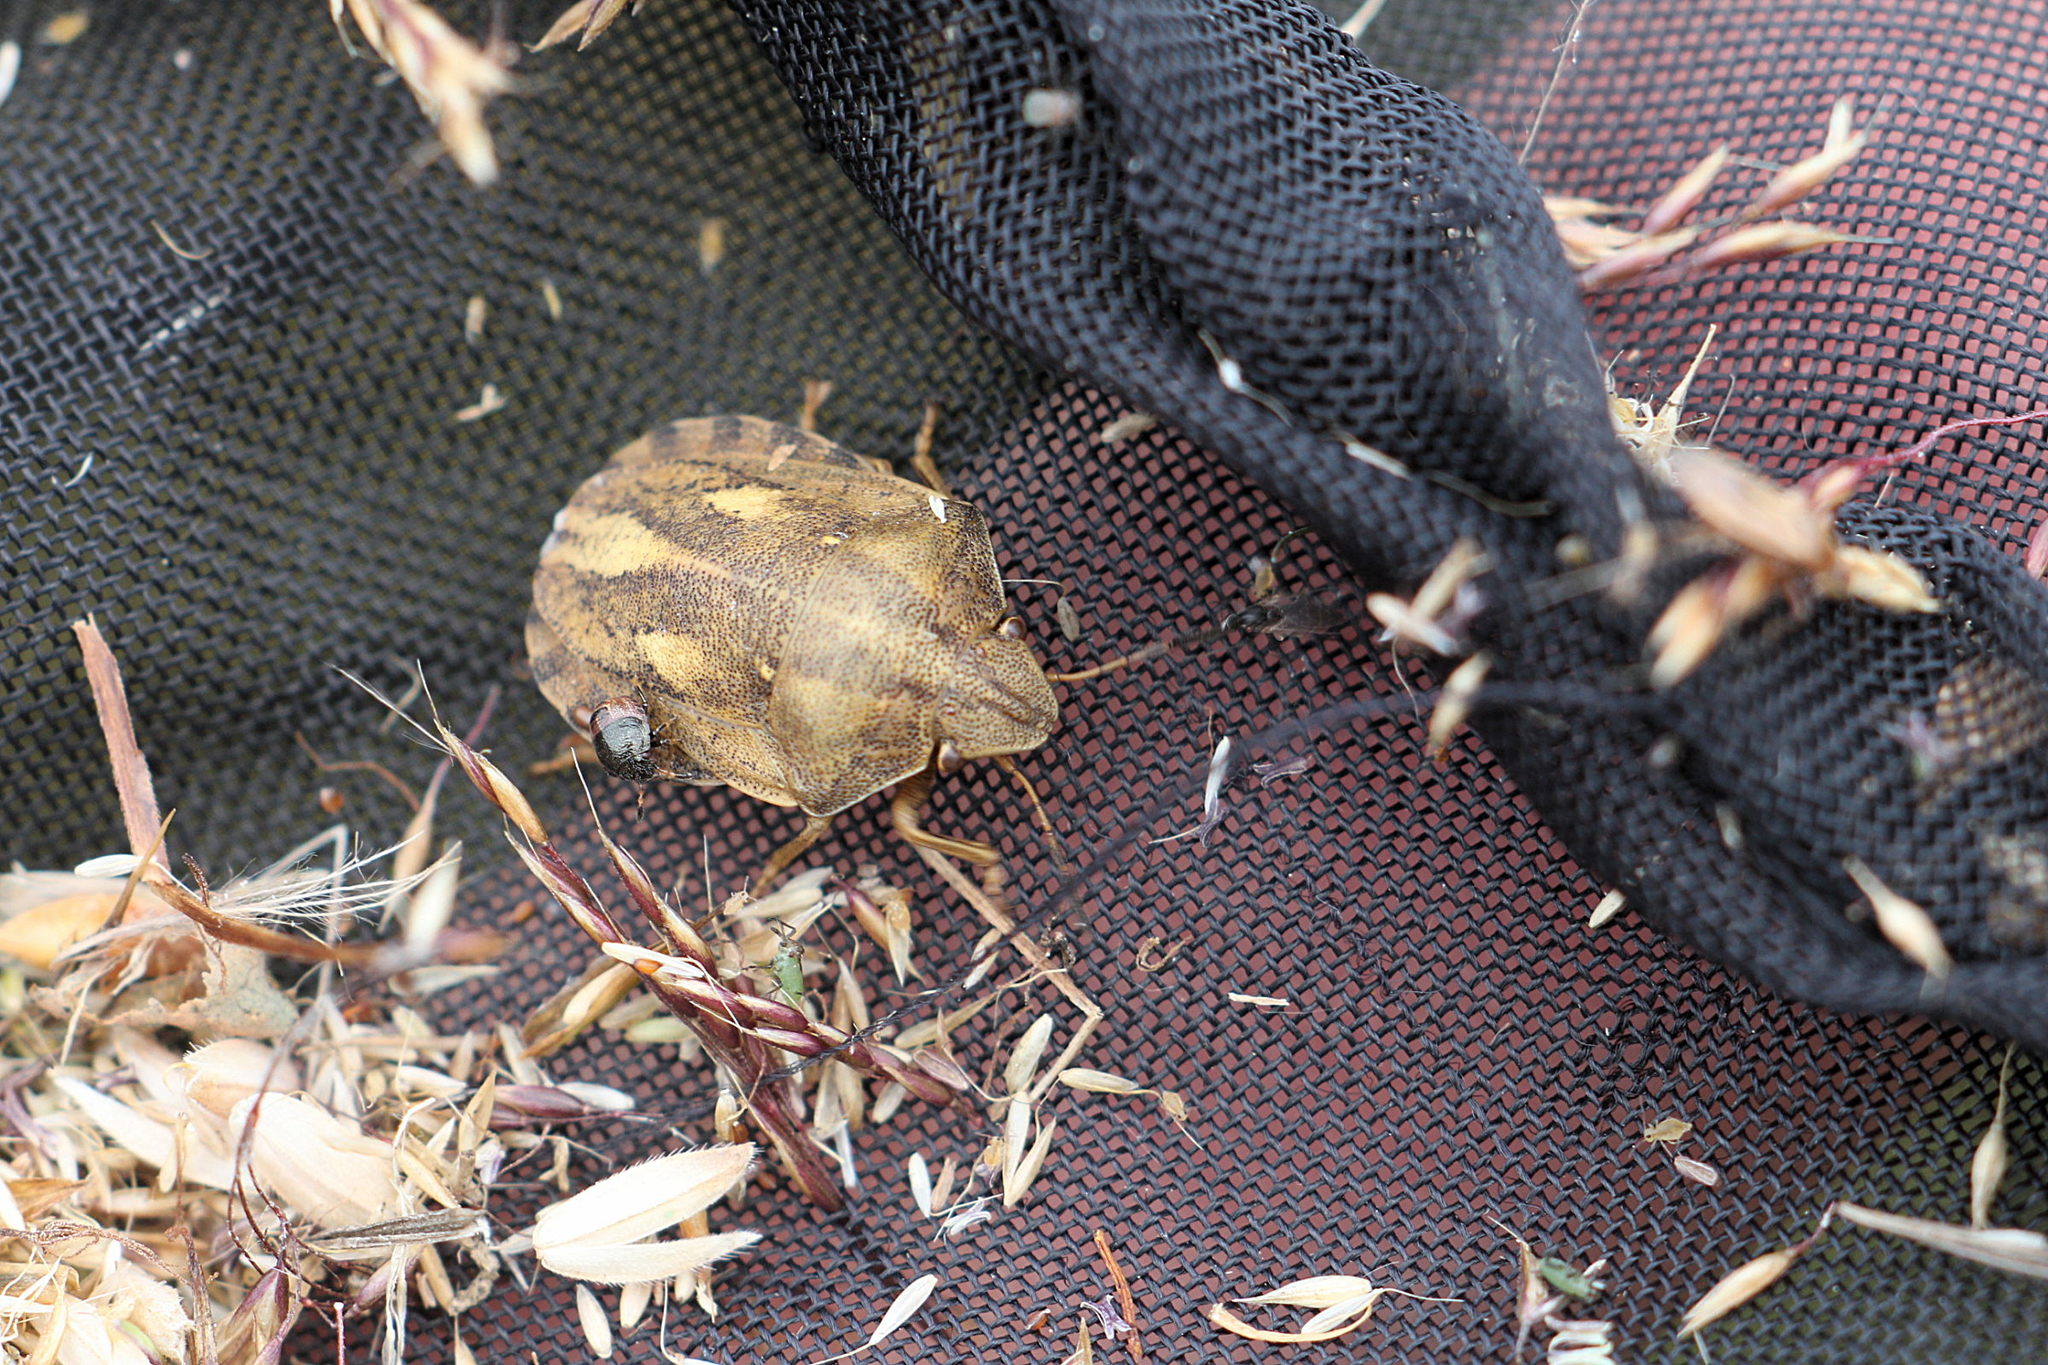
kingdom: Animalia
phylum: Arthropoda
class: Insecta
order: Hemiptera
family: Scutelleridae
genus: Eurygaster
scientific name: Eurygaster testudinaria
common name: Tortoise bug
